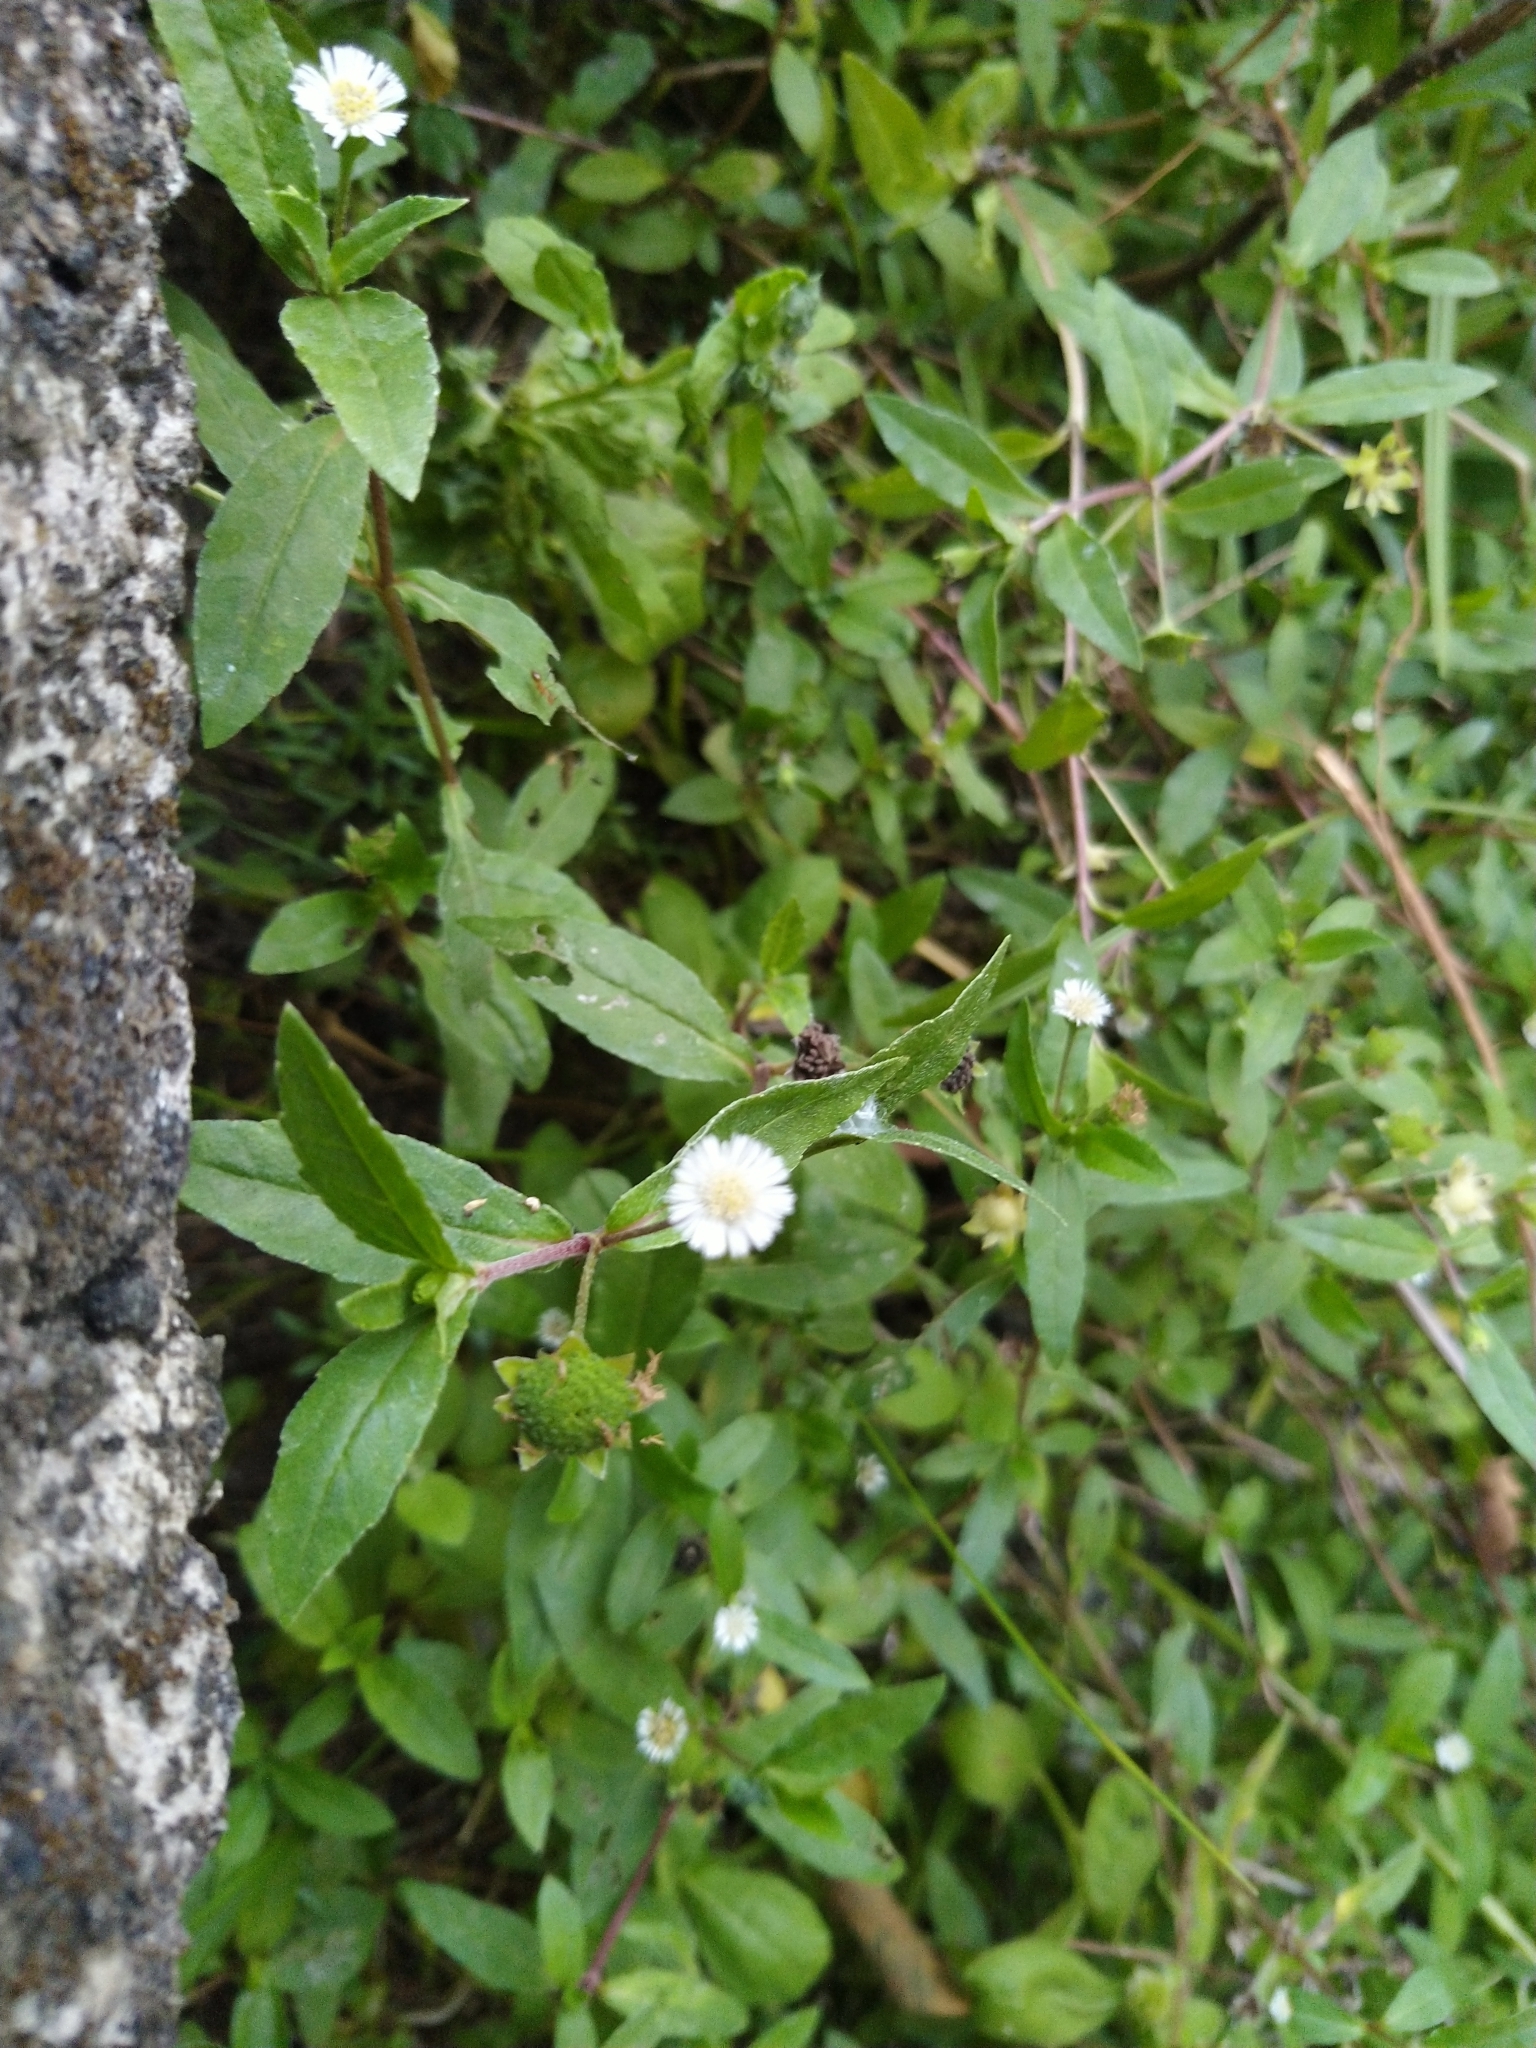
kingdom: Plantae
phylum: Tracheophyta
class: Magnoliopsida
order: Asterales
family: Asteraceae
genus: Eclipta
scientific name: Eclipta prostrata
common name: False daisy
